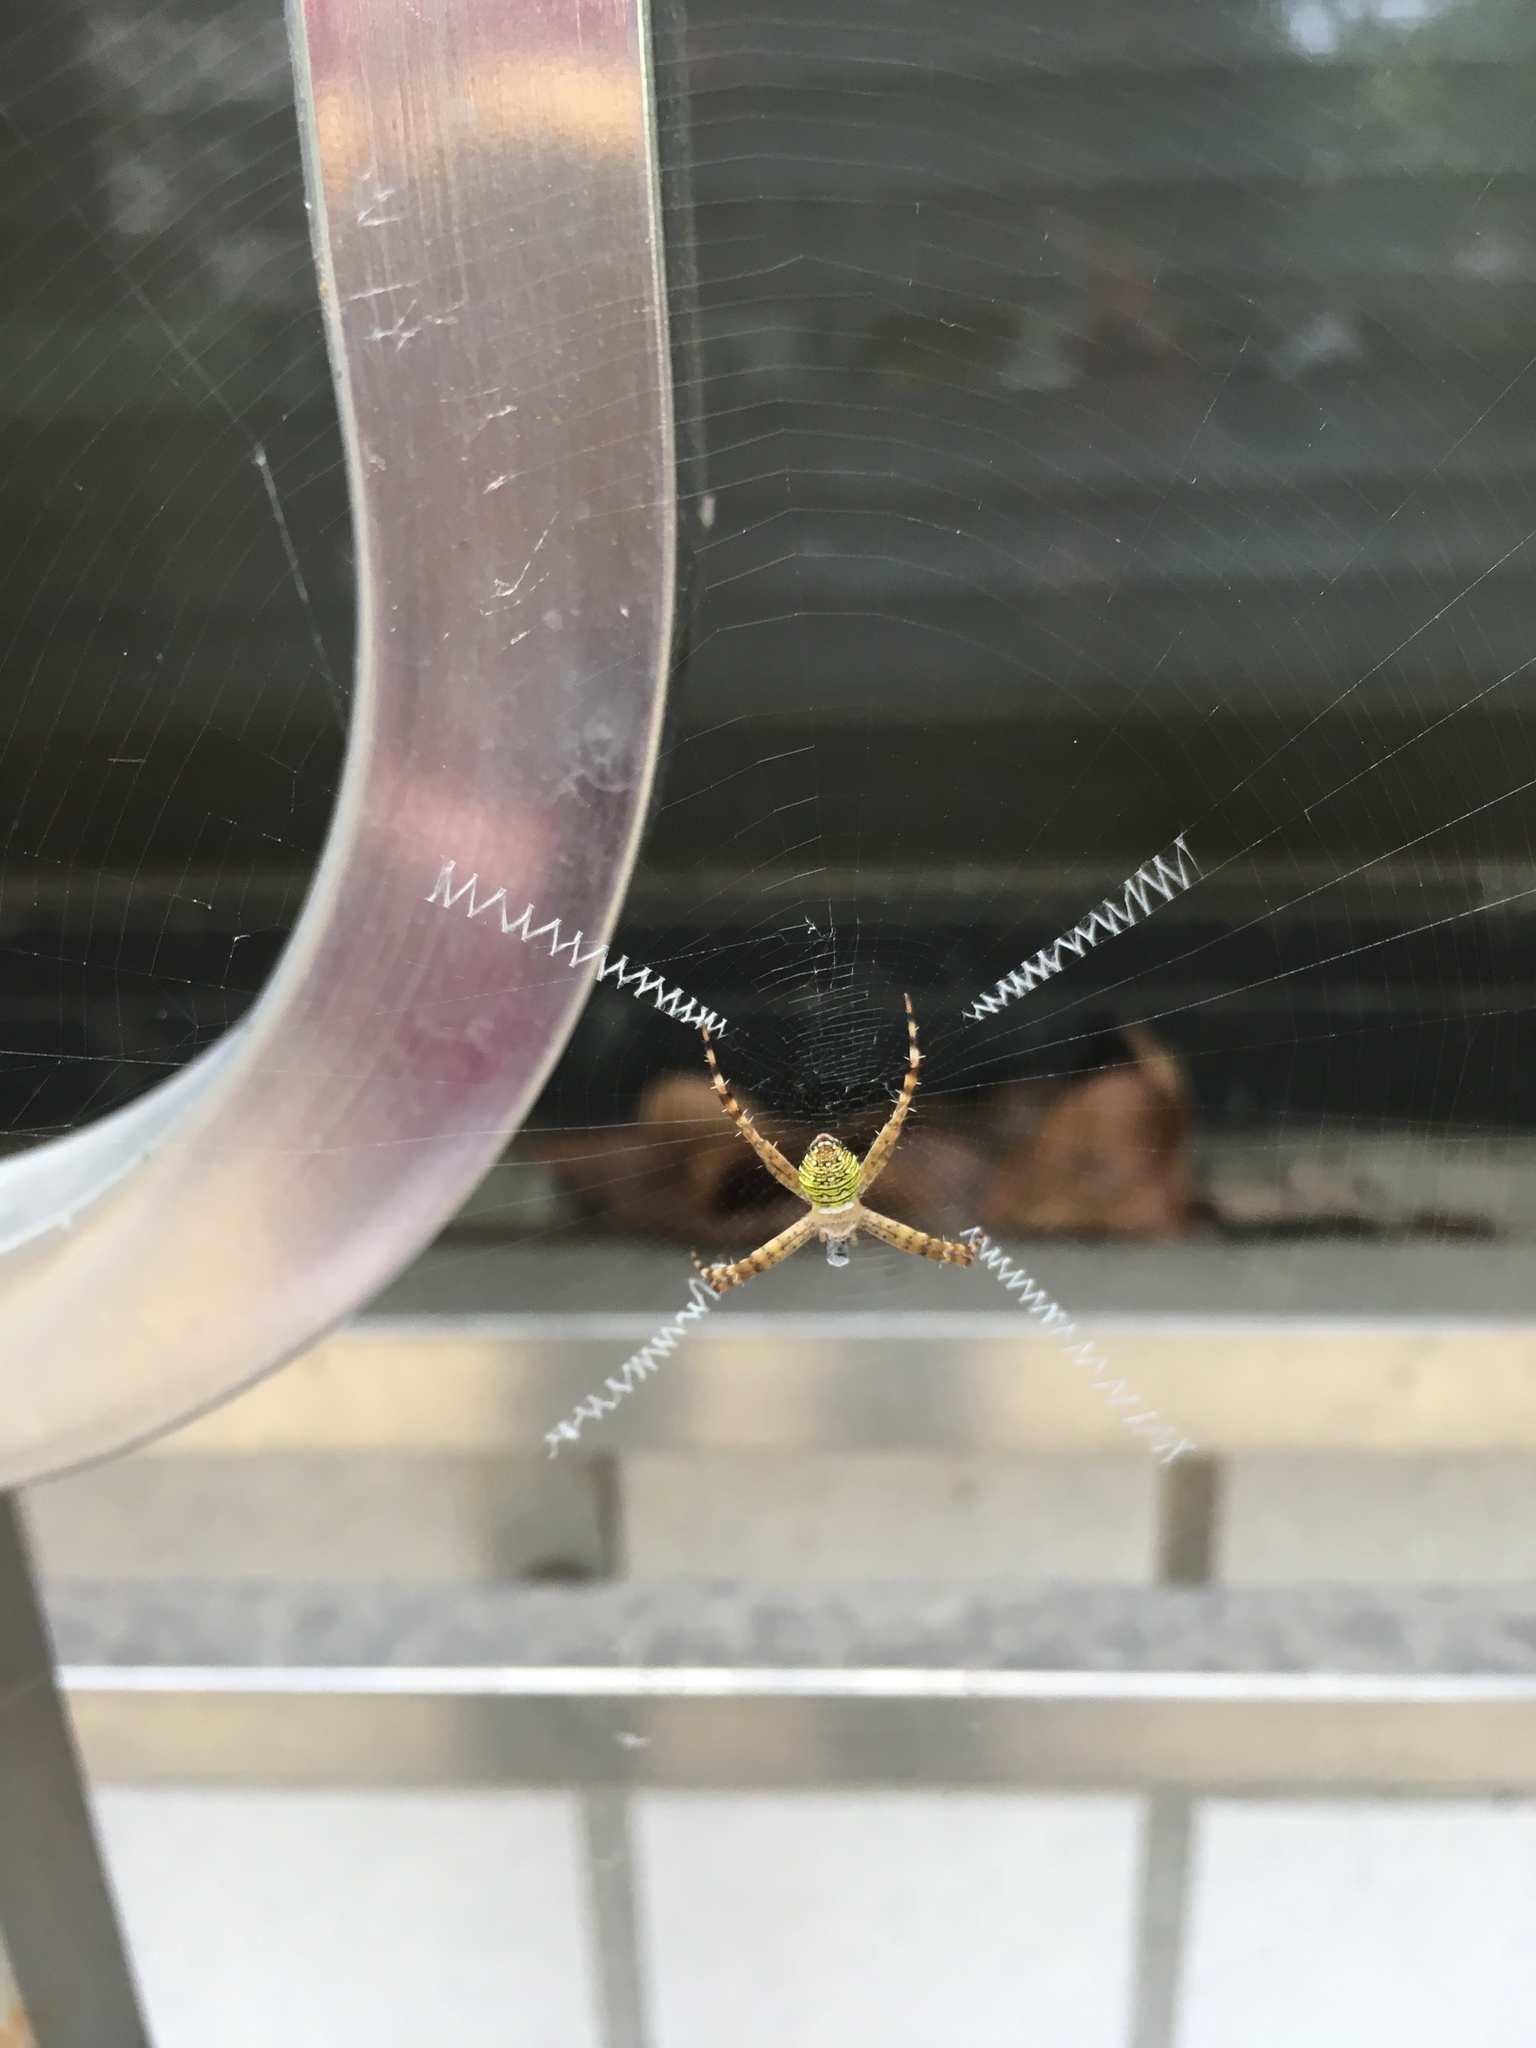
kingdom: Animalia
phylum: Arthropoda
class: Arachnida
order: Araneae
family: Araneidae
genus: Argiope
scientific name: Argiope aemula
